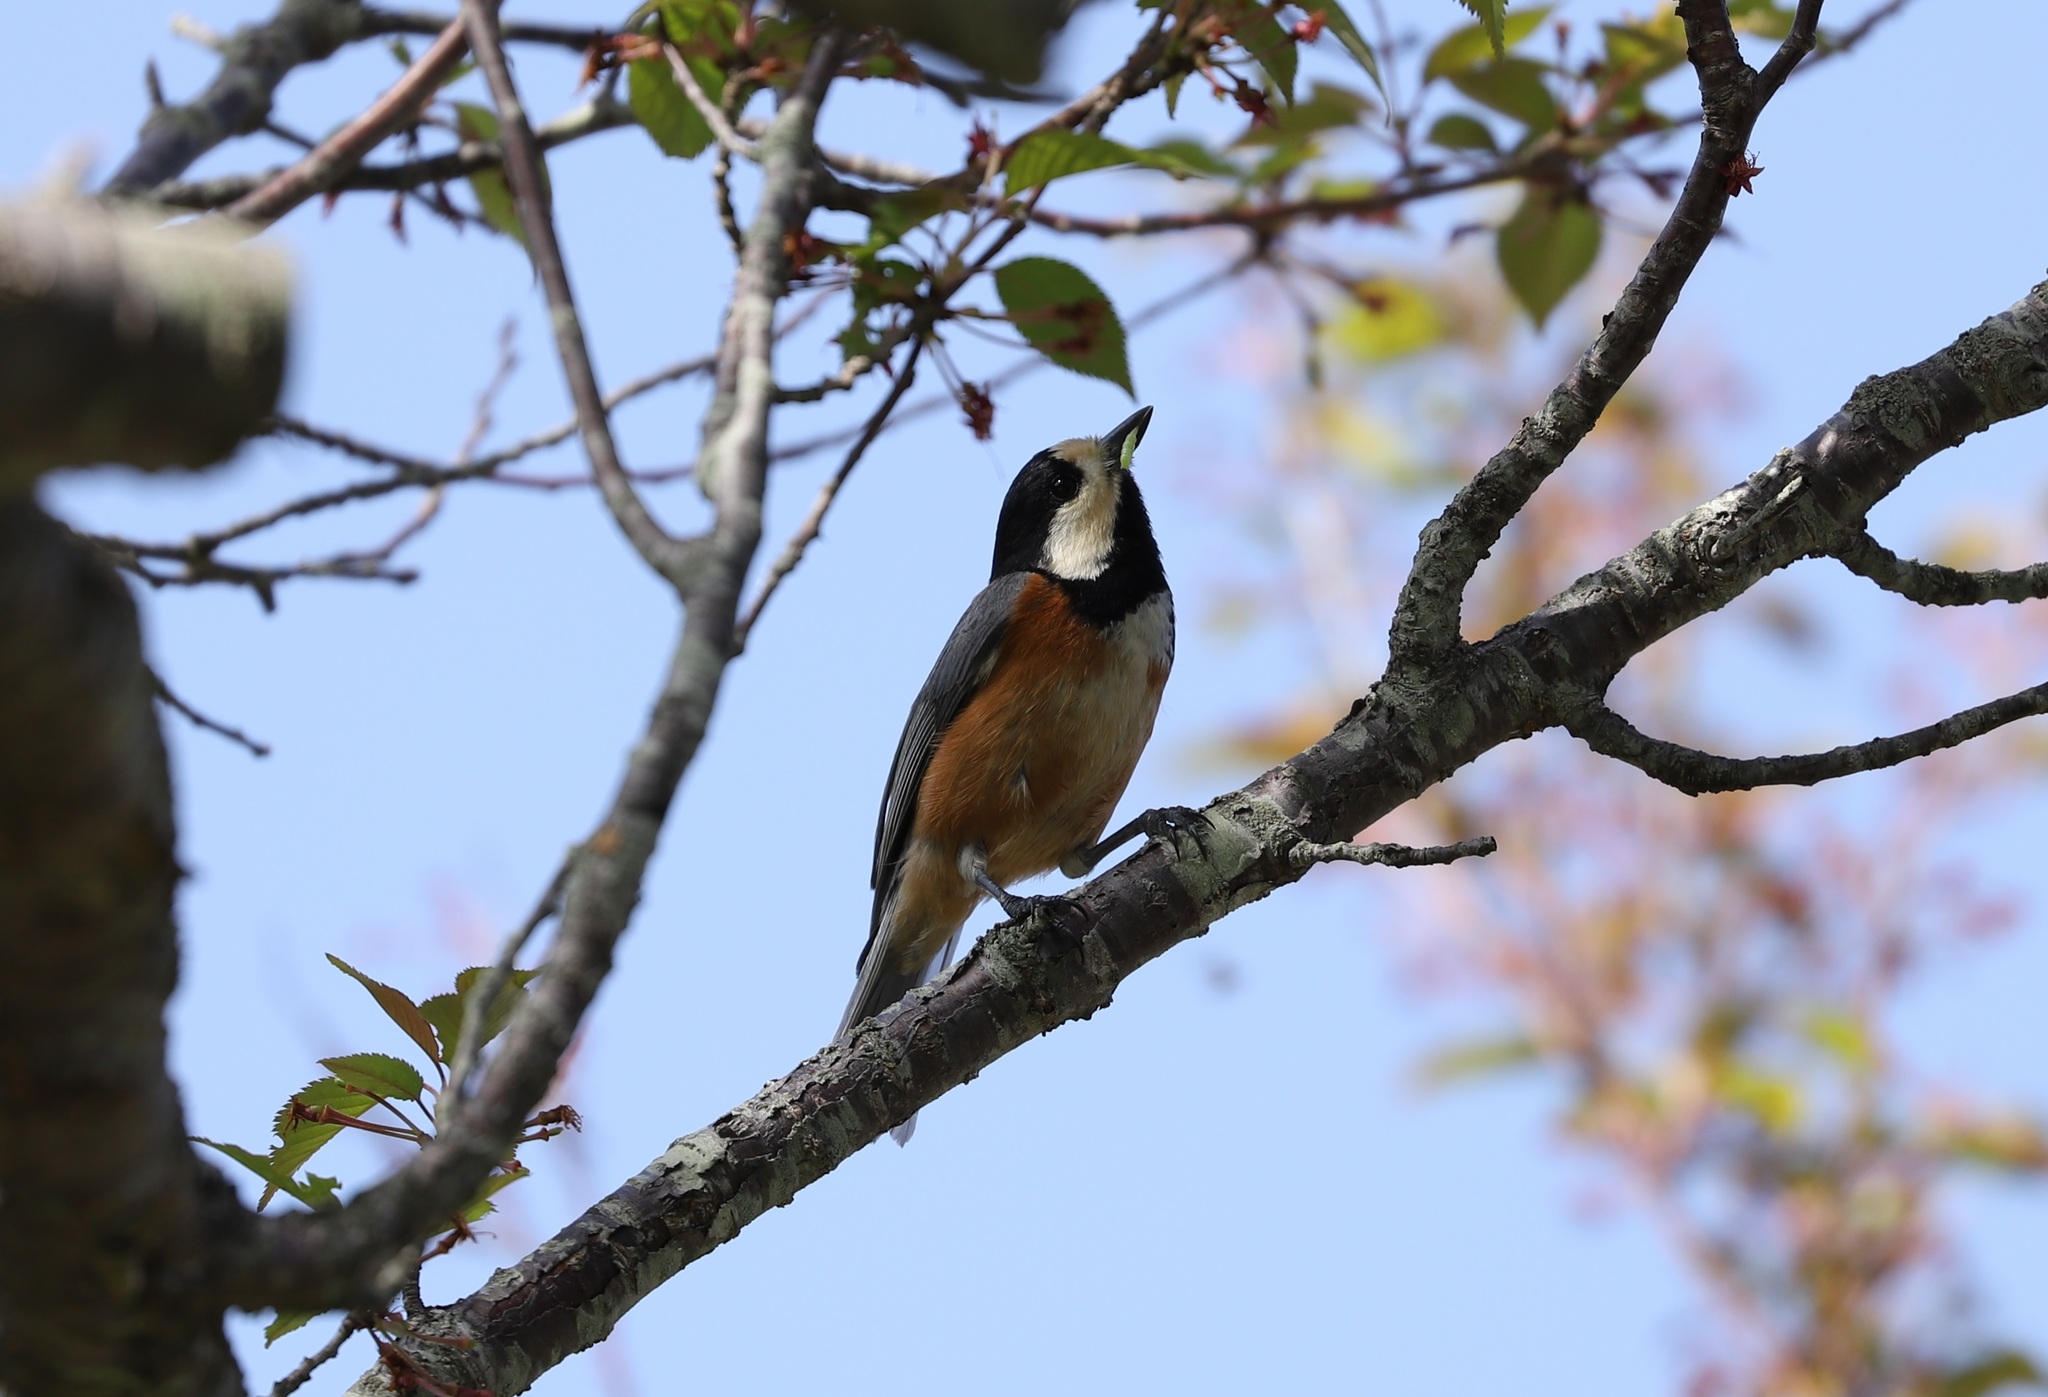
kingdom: Animalia
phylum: Chordata
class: Aves
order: Passeriformes
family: Paridae
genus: Poecile
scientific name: Poecile varius
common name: Varied tit
